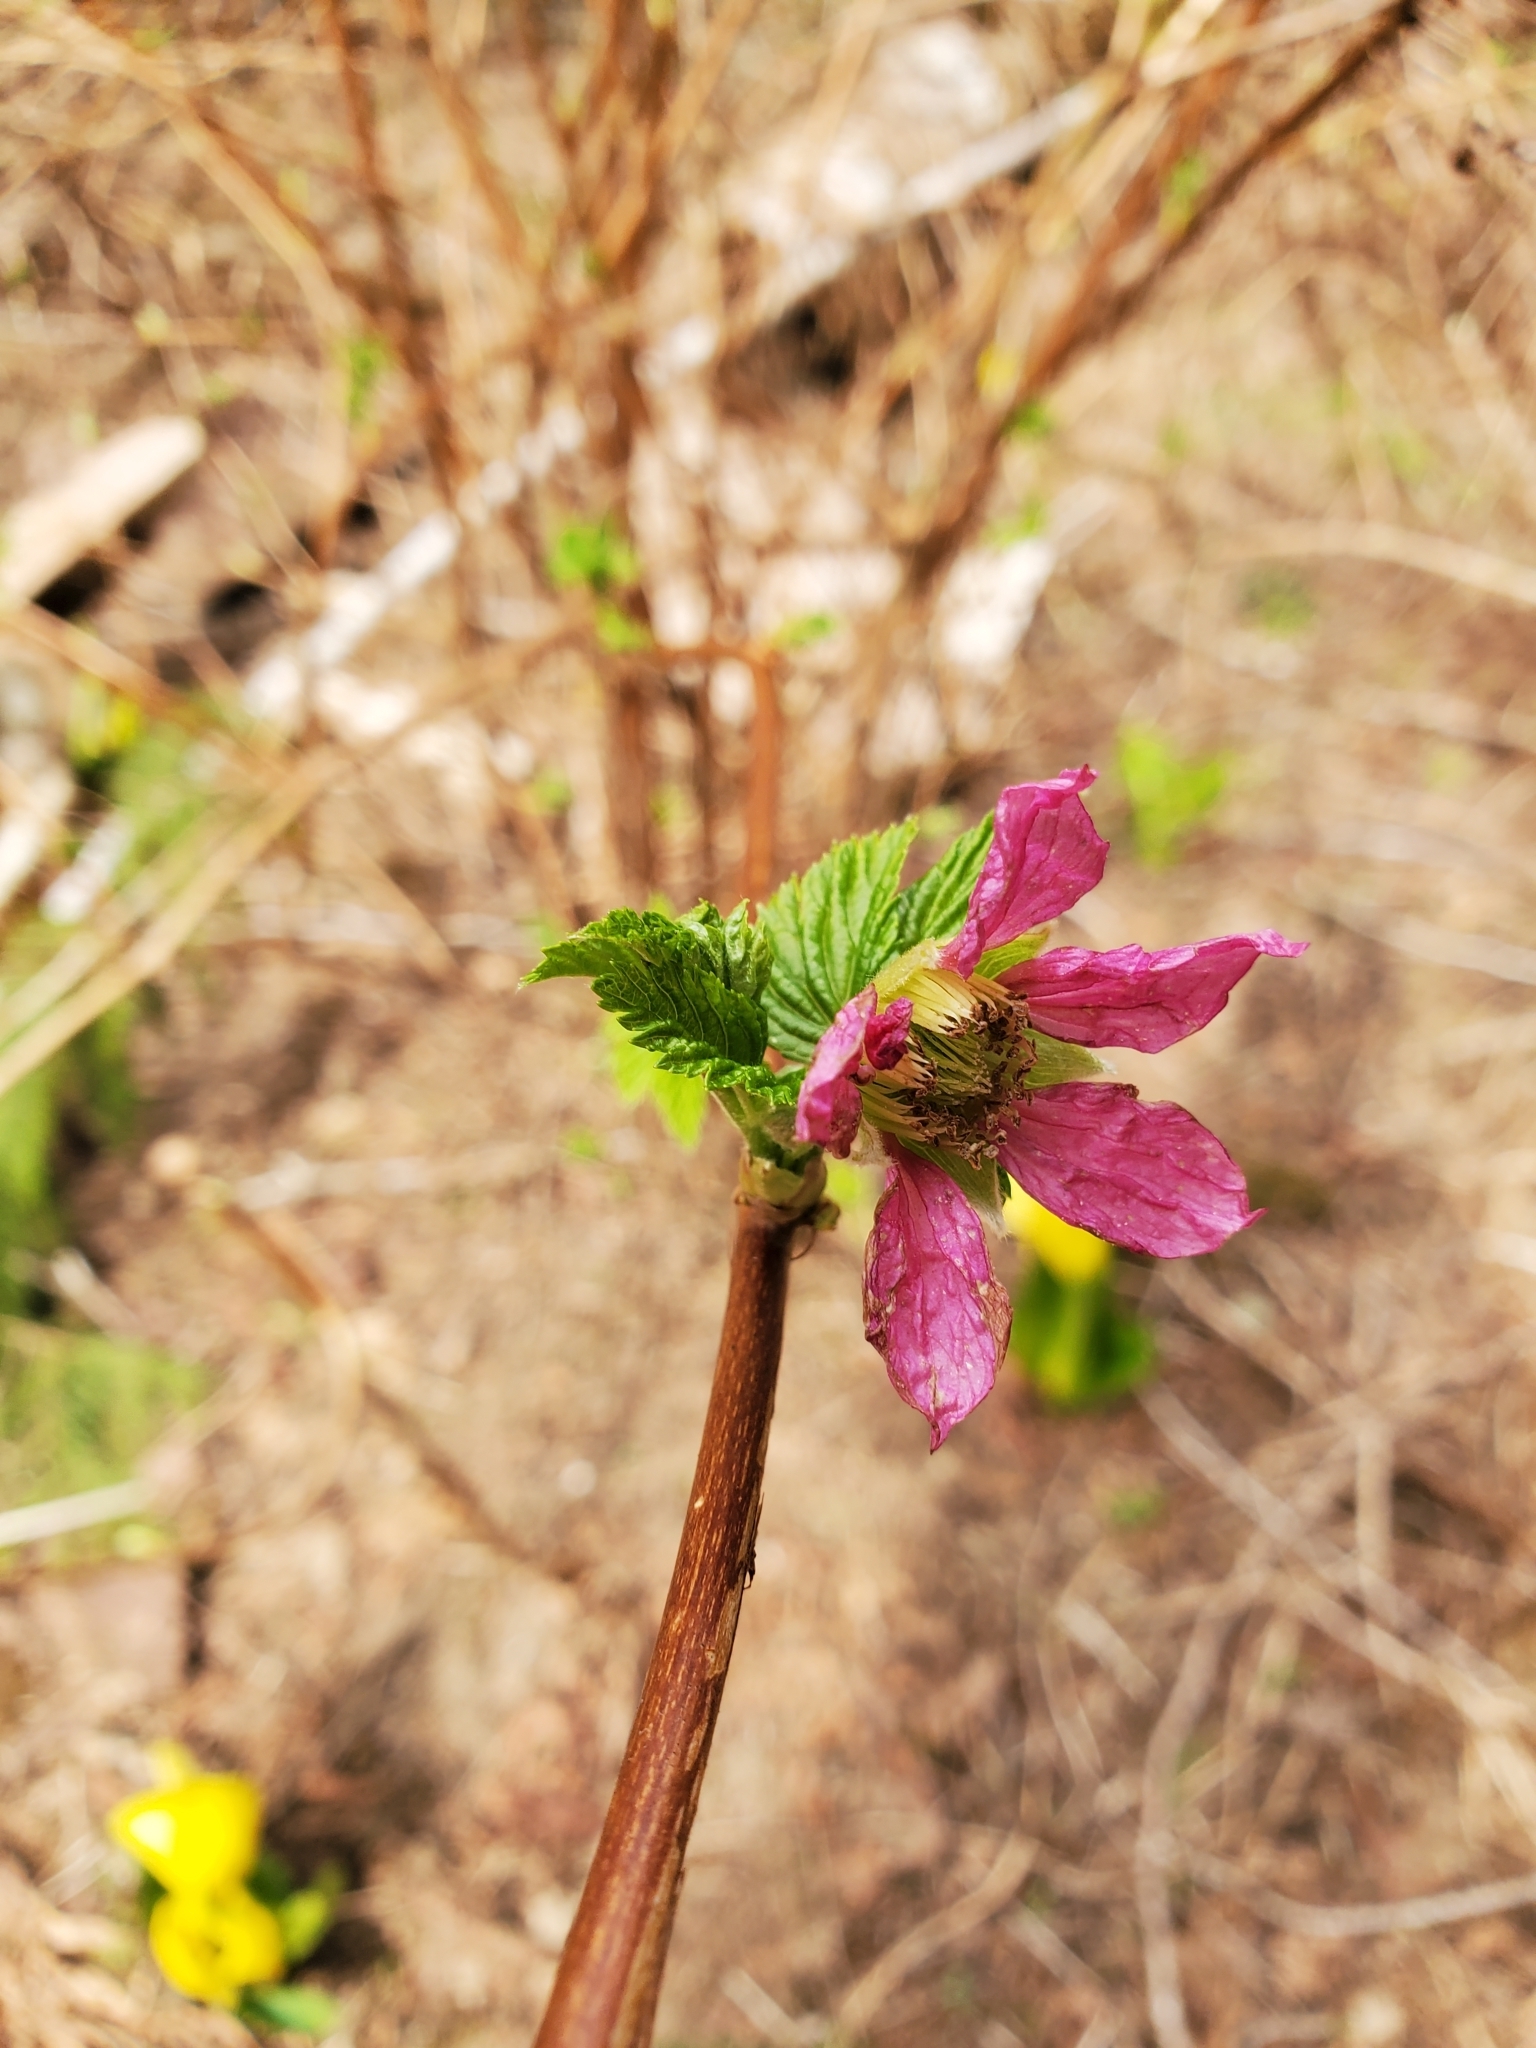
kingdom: Plantae
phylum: Tracheophyta
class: Magnoliopsida
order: Rosales
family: Rosaceae
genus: Rubus
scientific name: Rubus spectabilis
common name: Salmonberry
